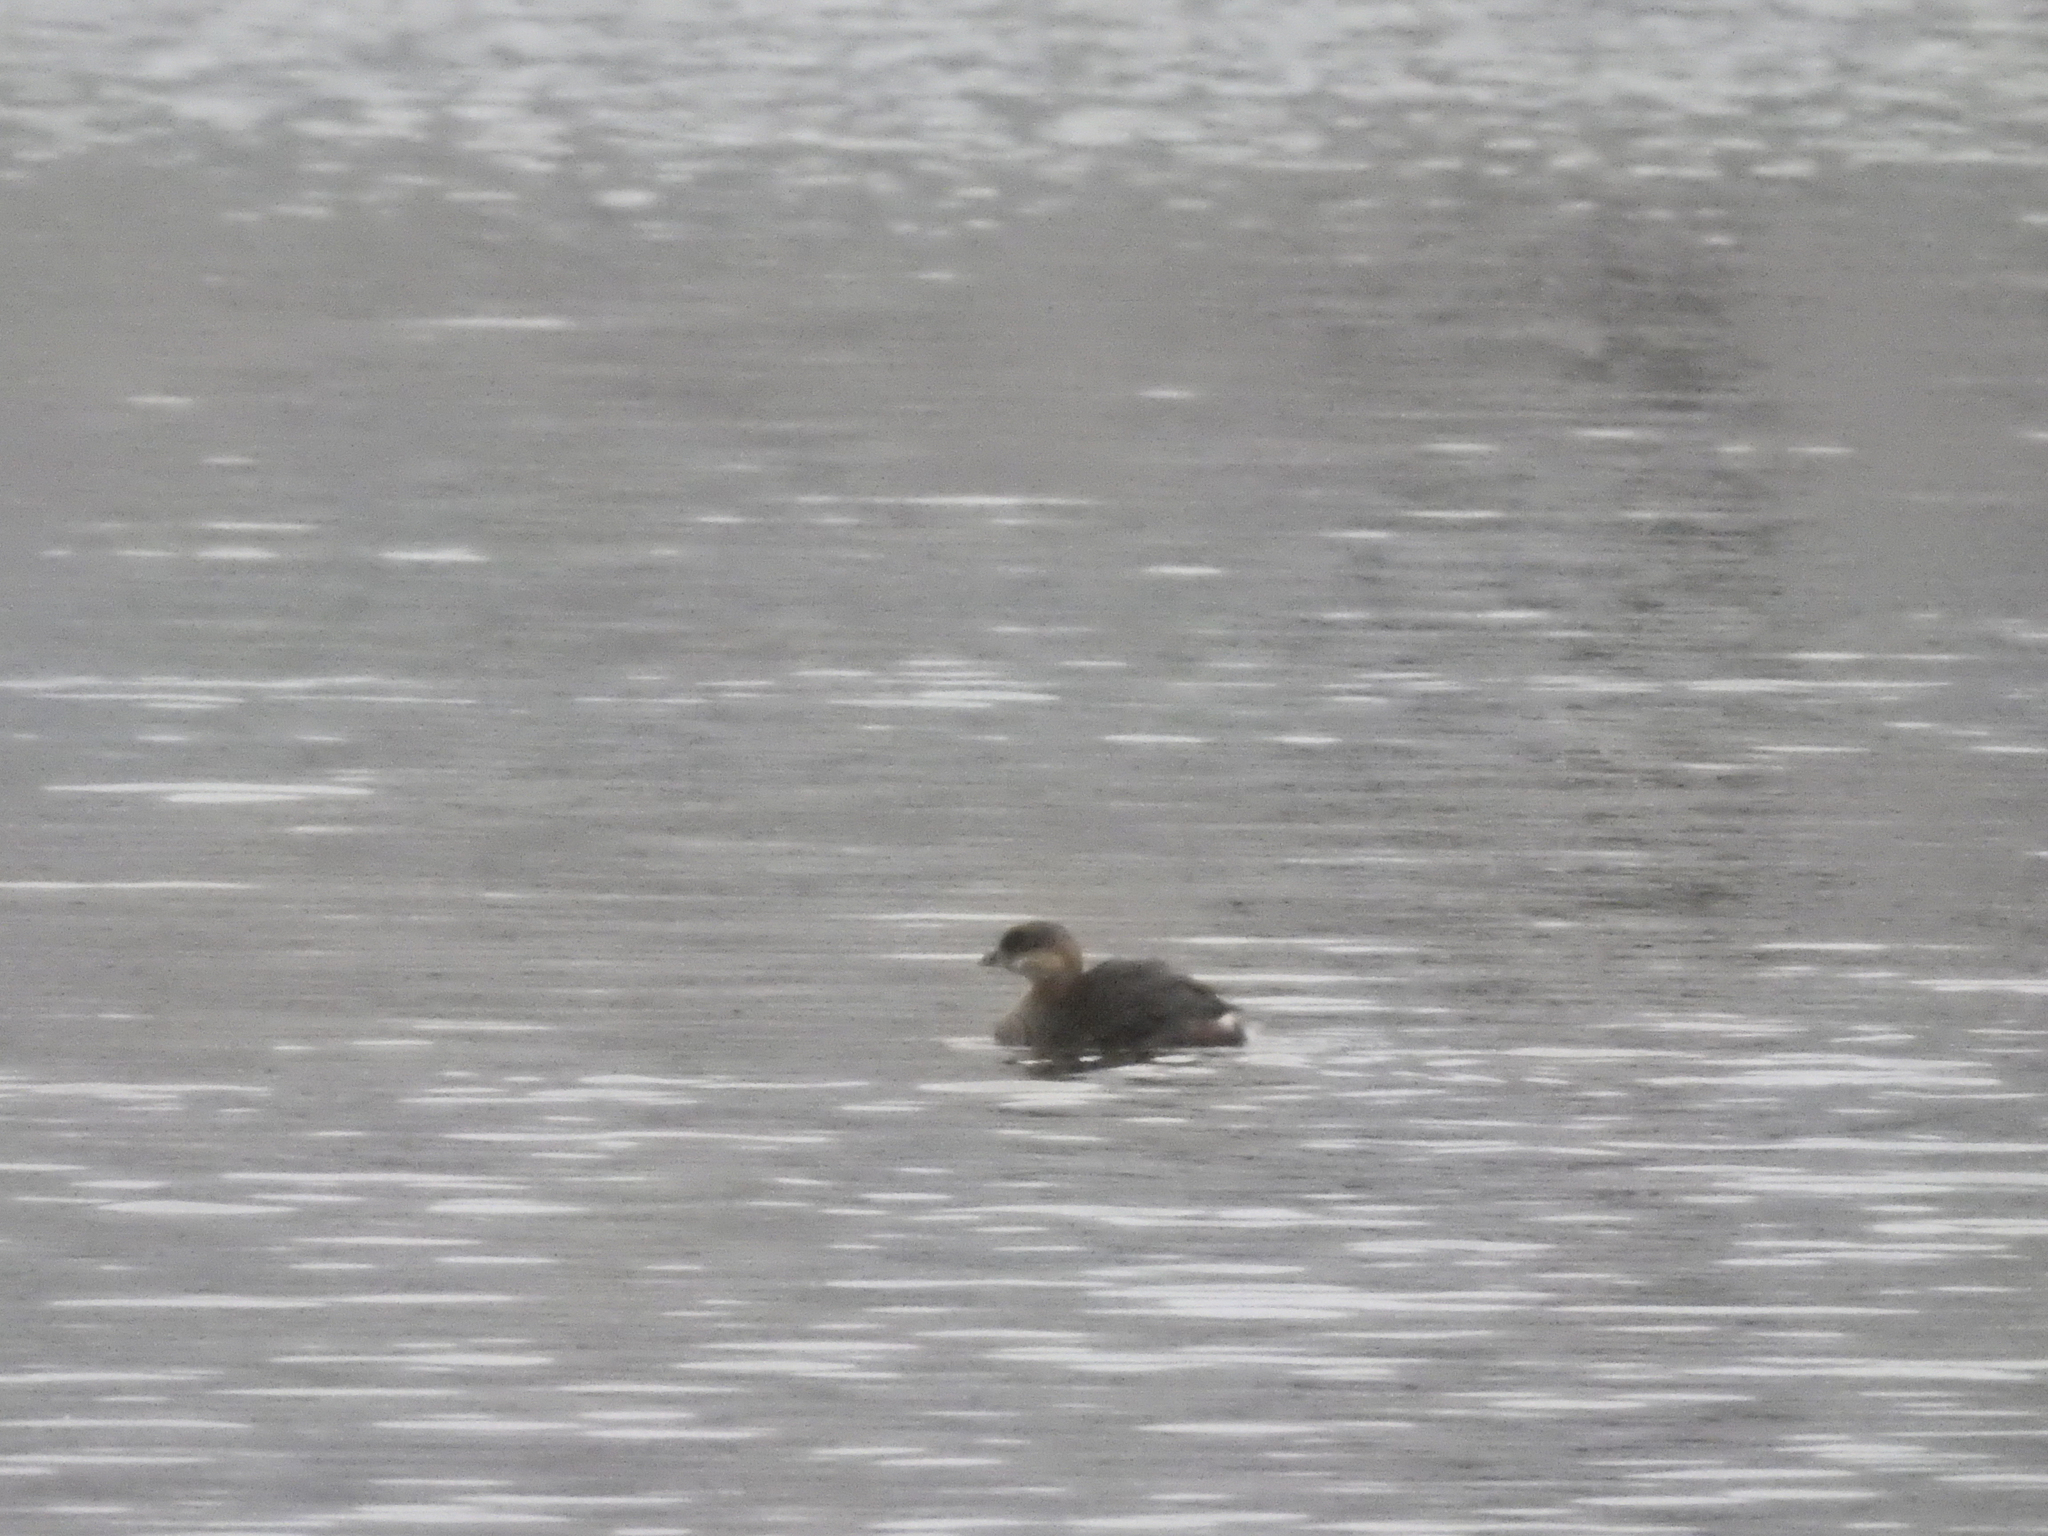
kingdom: Animalia
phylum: Chordata
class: Aves
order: Podicipediformes
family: Podicipedidae
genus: Podilymbus
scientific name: Podilymbus podiceps
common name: Pied-billed grebe
